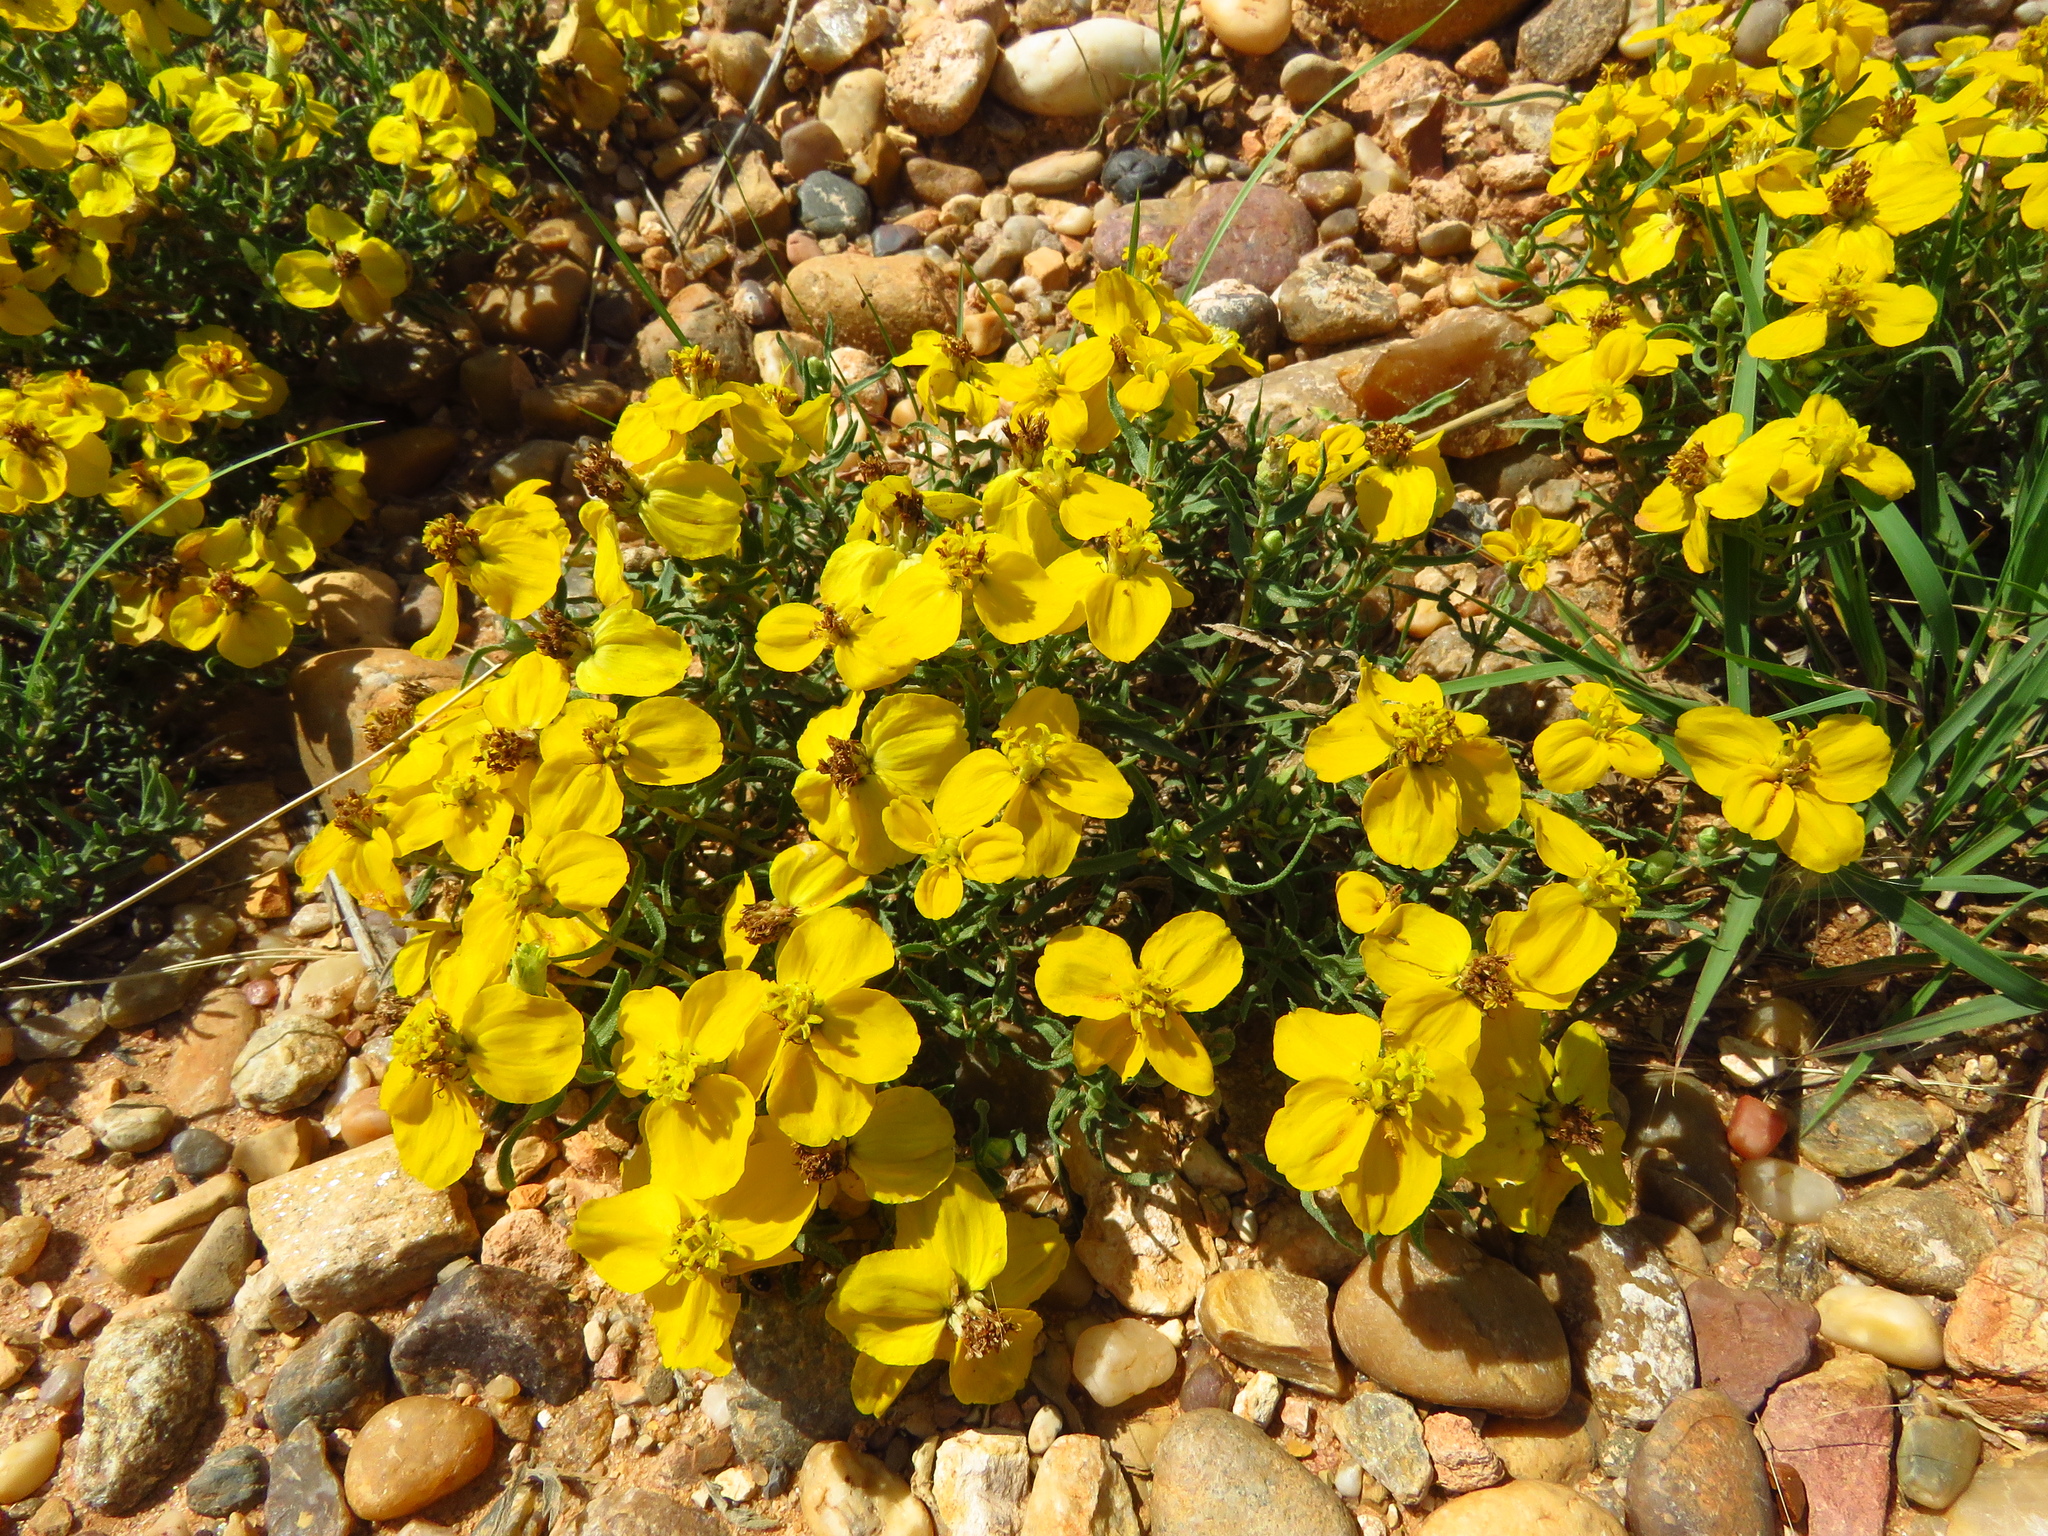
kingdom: Plantae
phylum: Tracheophyta
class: Magnoliopsida
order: Asterales
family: Asteraceae
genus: Zinnia
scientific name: Zinnia grandiflora
